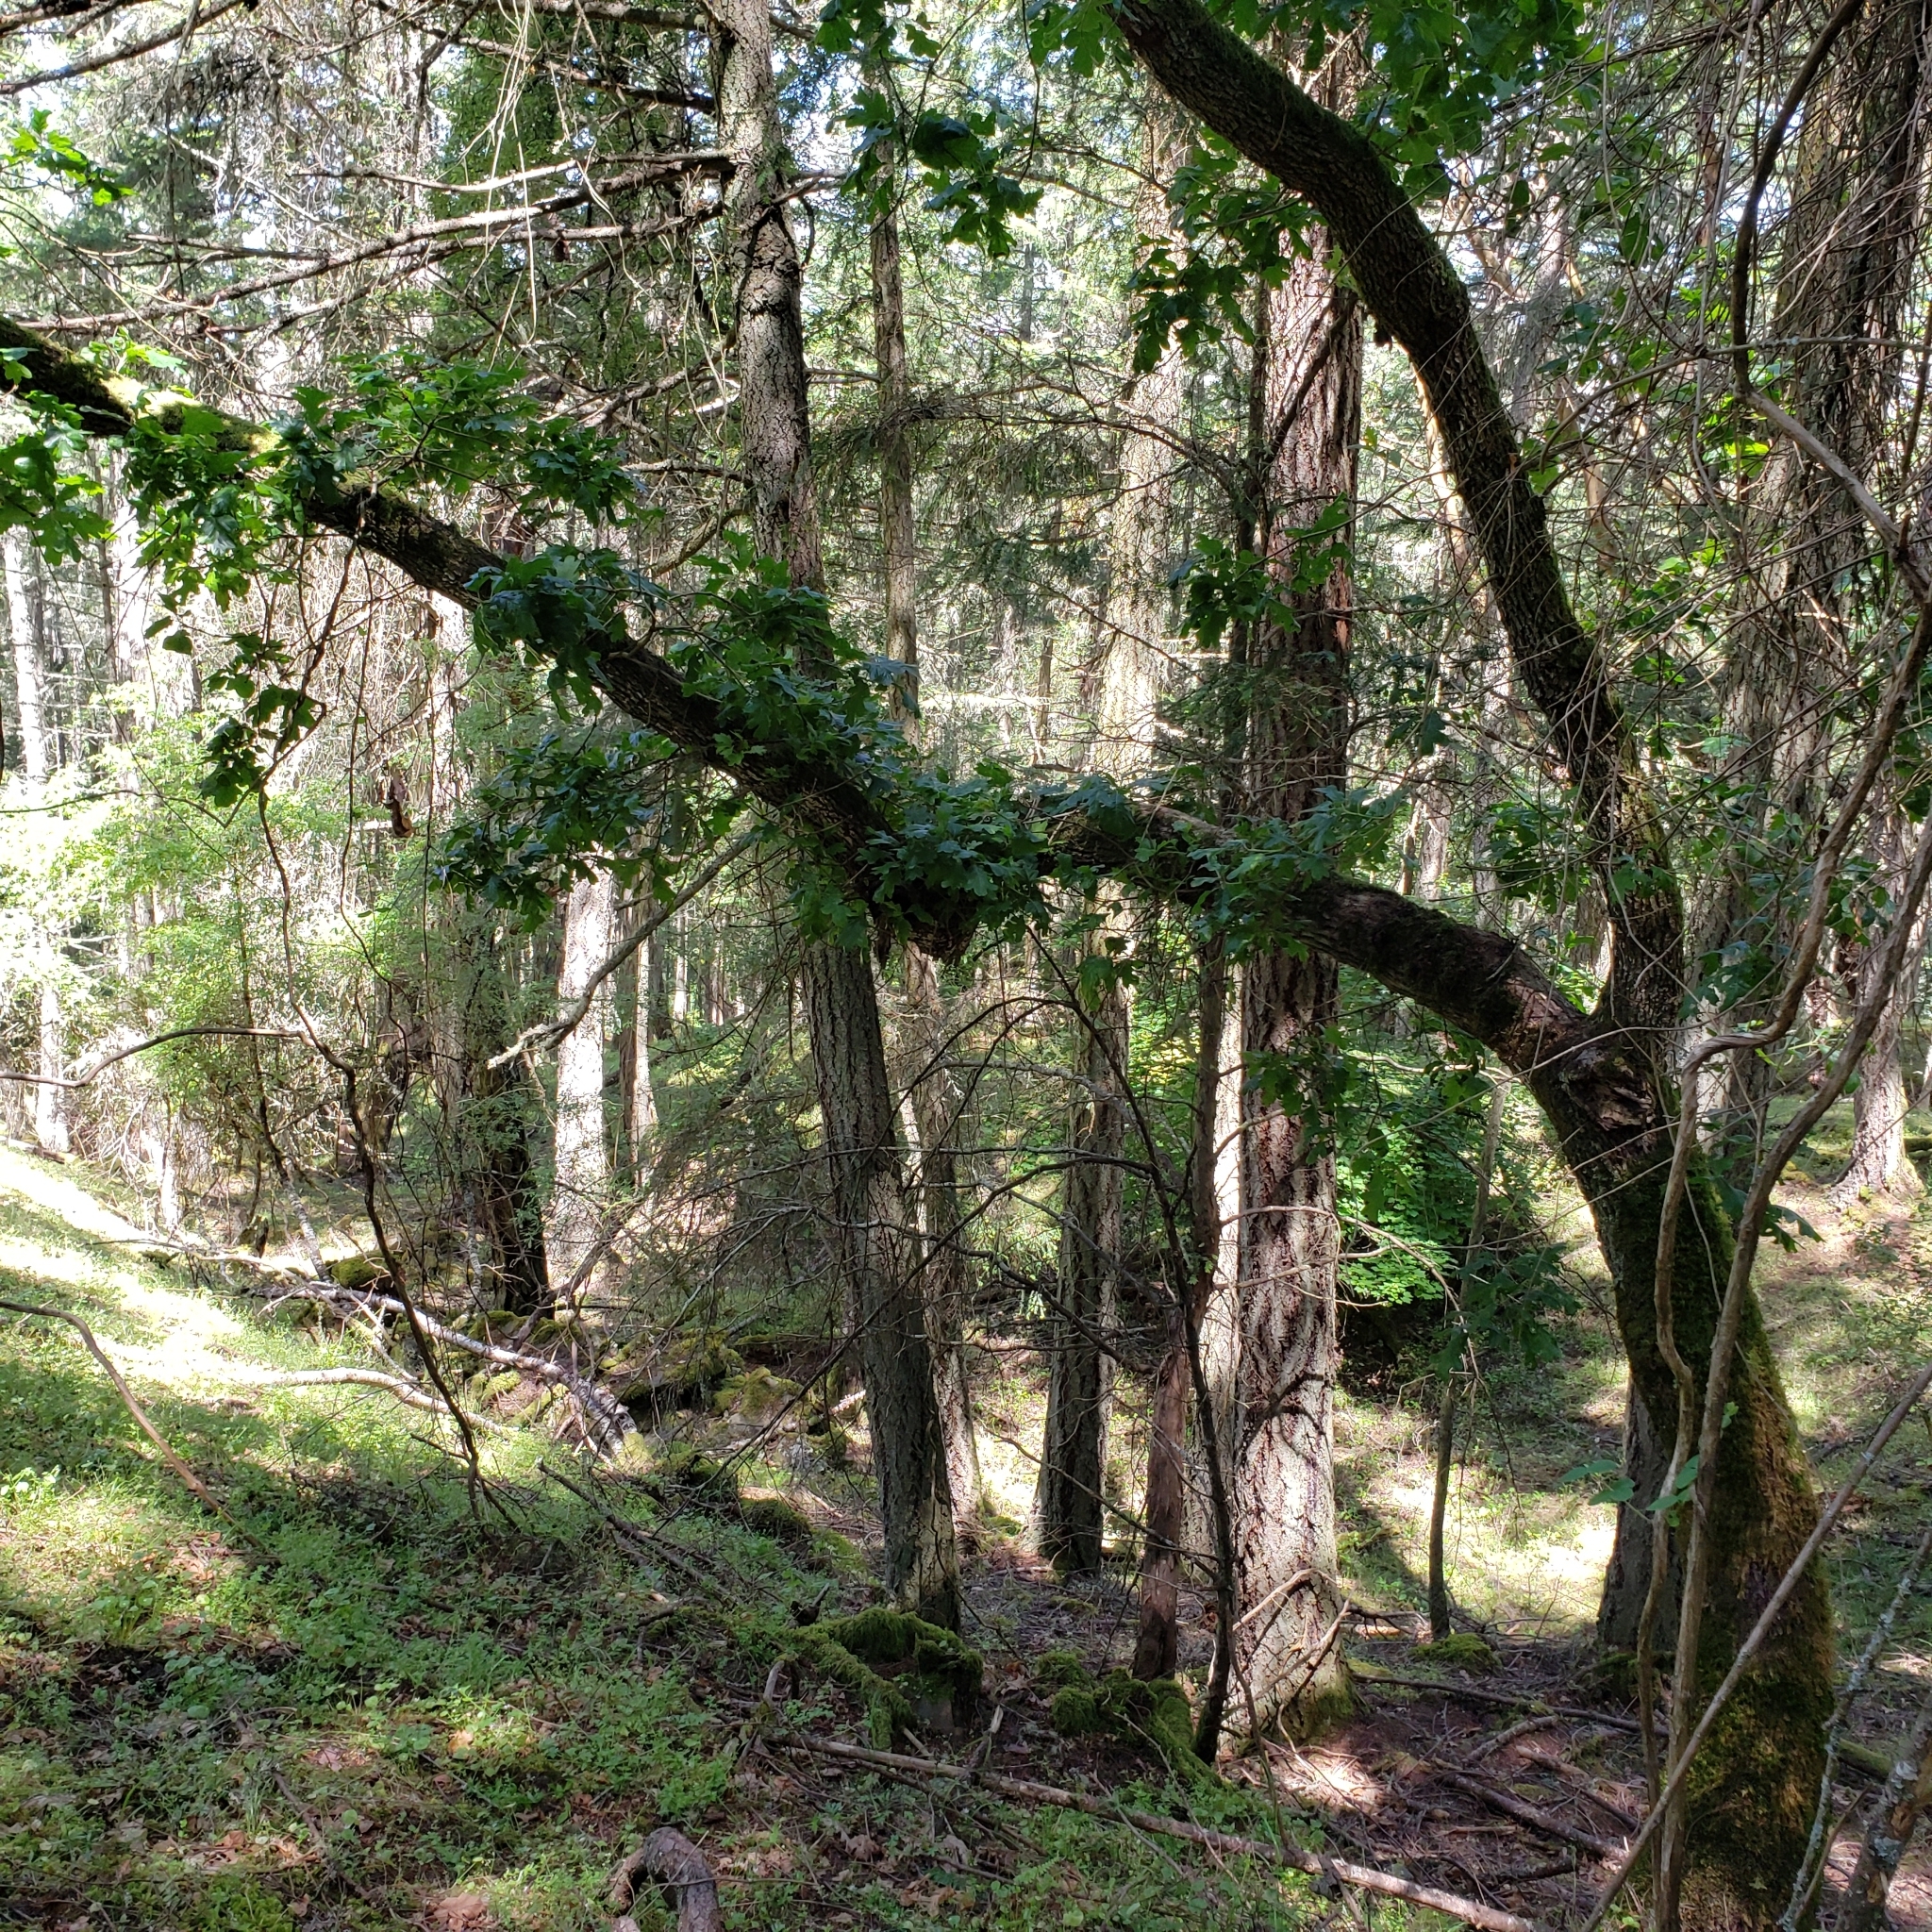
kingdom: Plantae
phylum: Tracheophyta
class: Magnoliopsida
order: Fagales
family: Fagaceae
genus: Quercus
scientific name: Quercus garryana
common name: Garry oak
